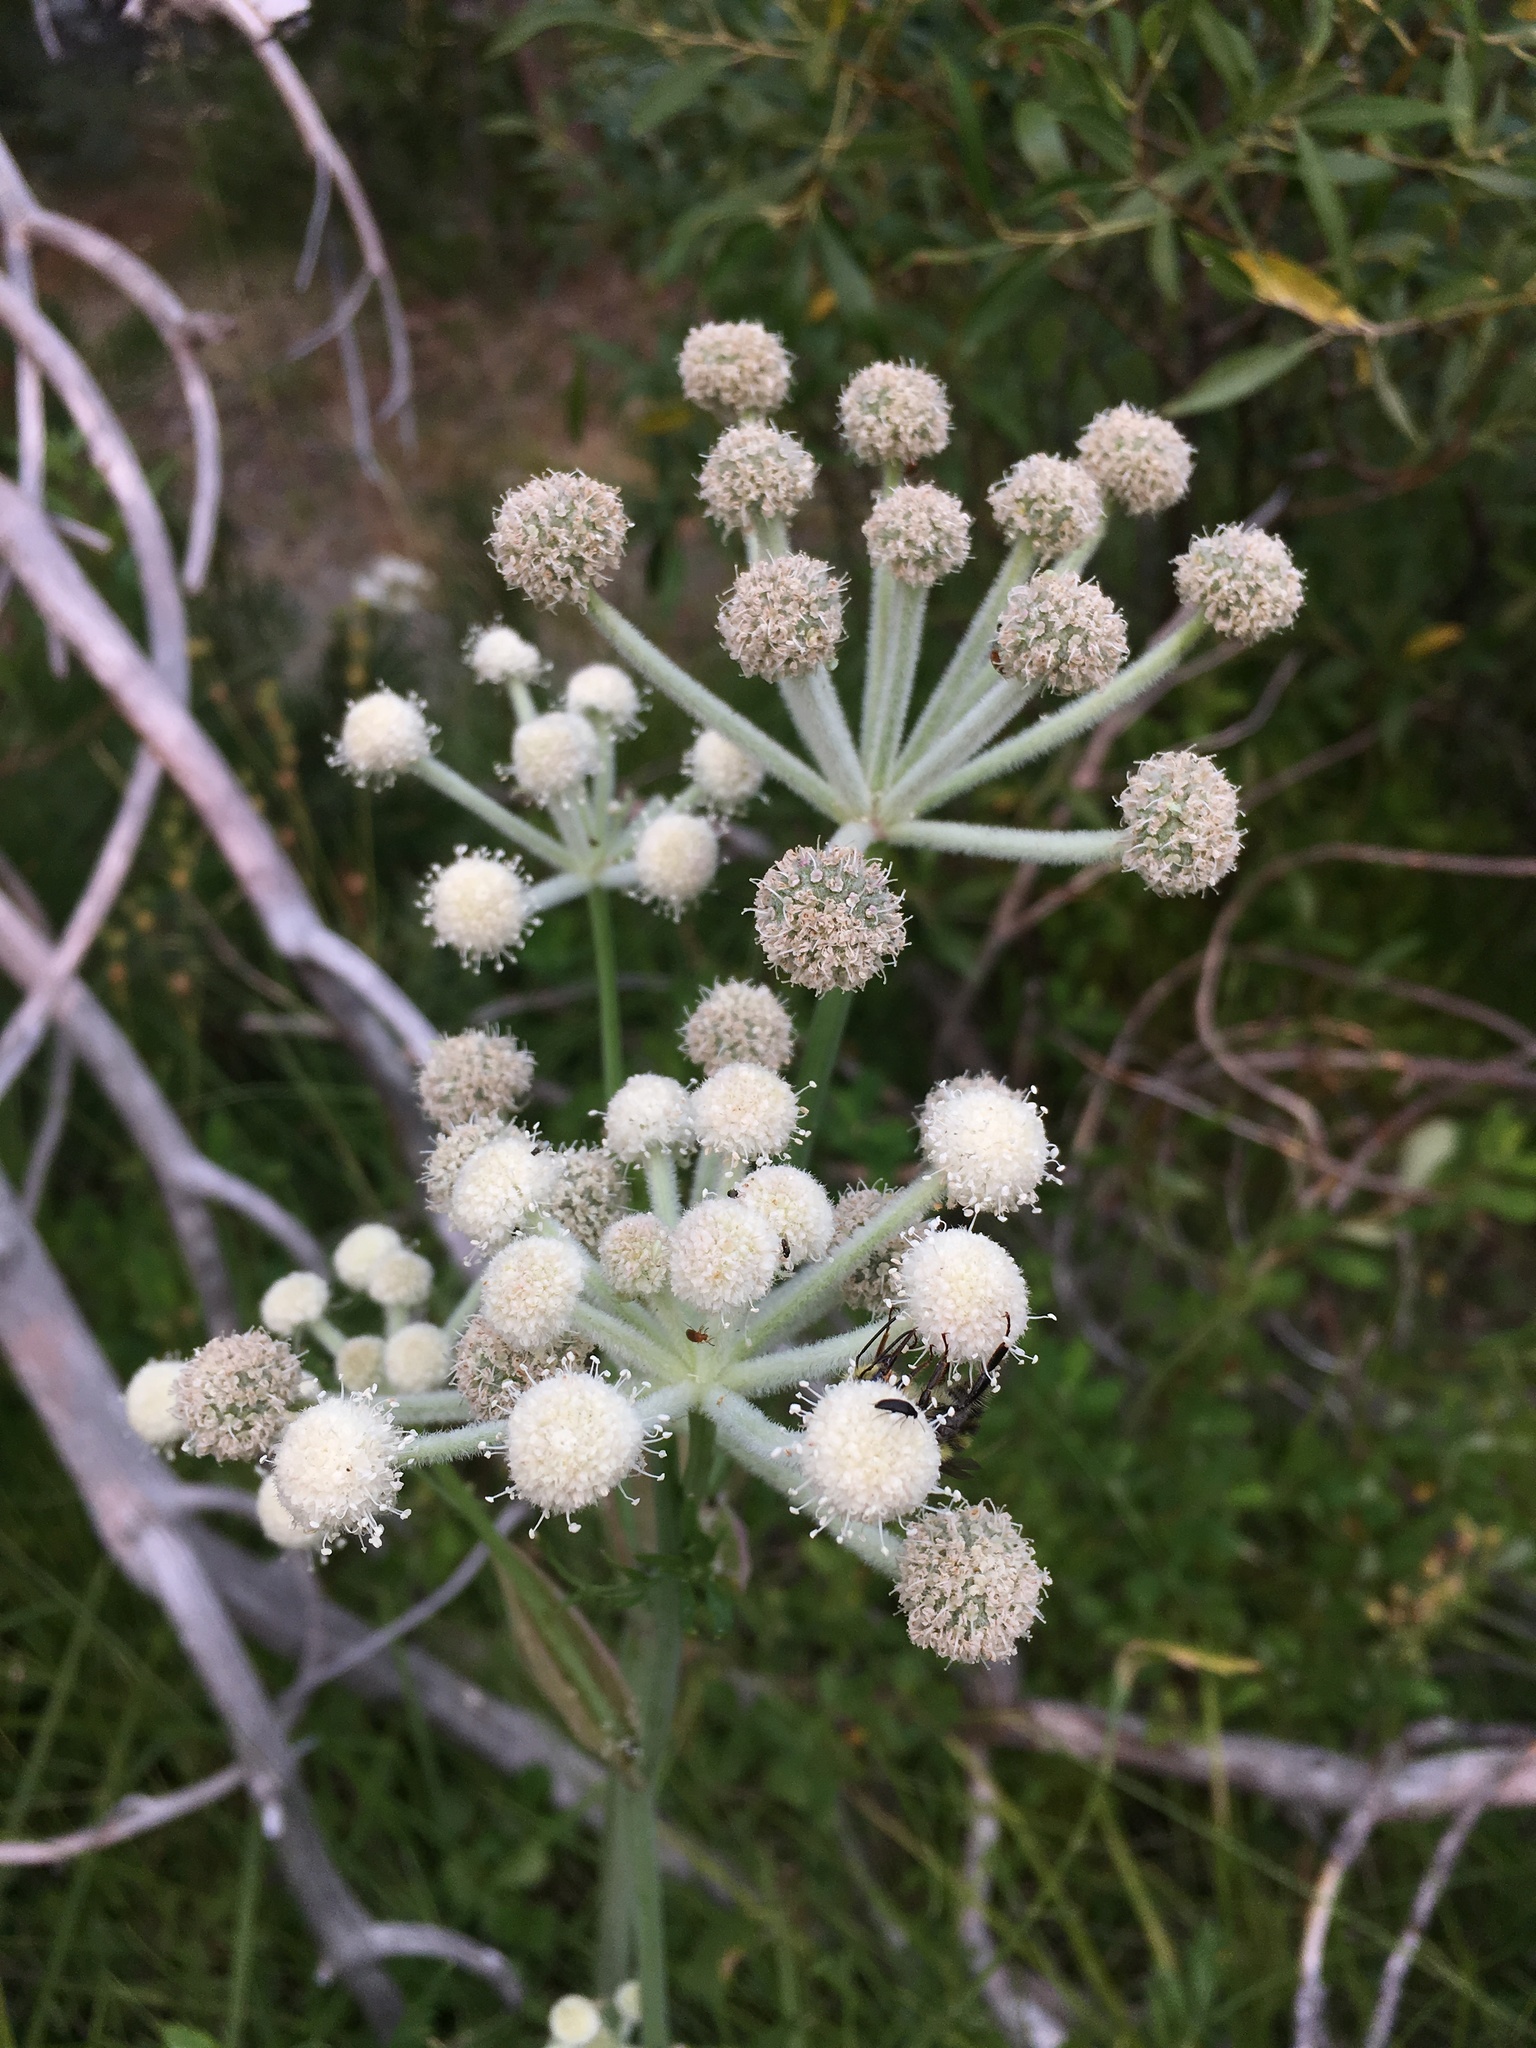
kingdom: Plantae
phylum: Tracheophyta
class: Magnoliopsida
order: Apiales
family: Apiaceae
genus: Angelica
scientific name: Angelica capitellata
